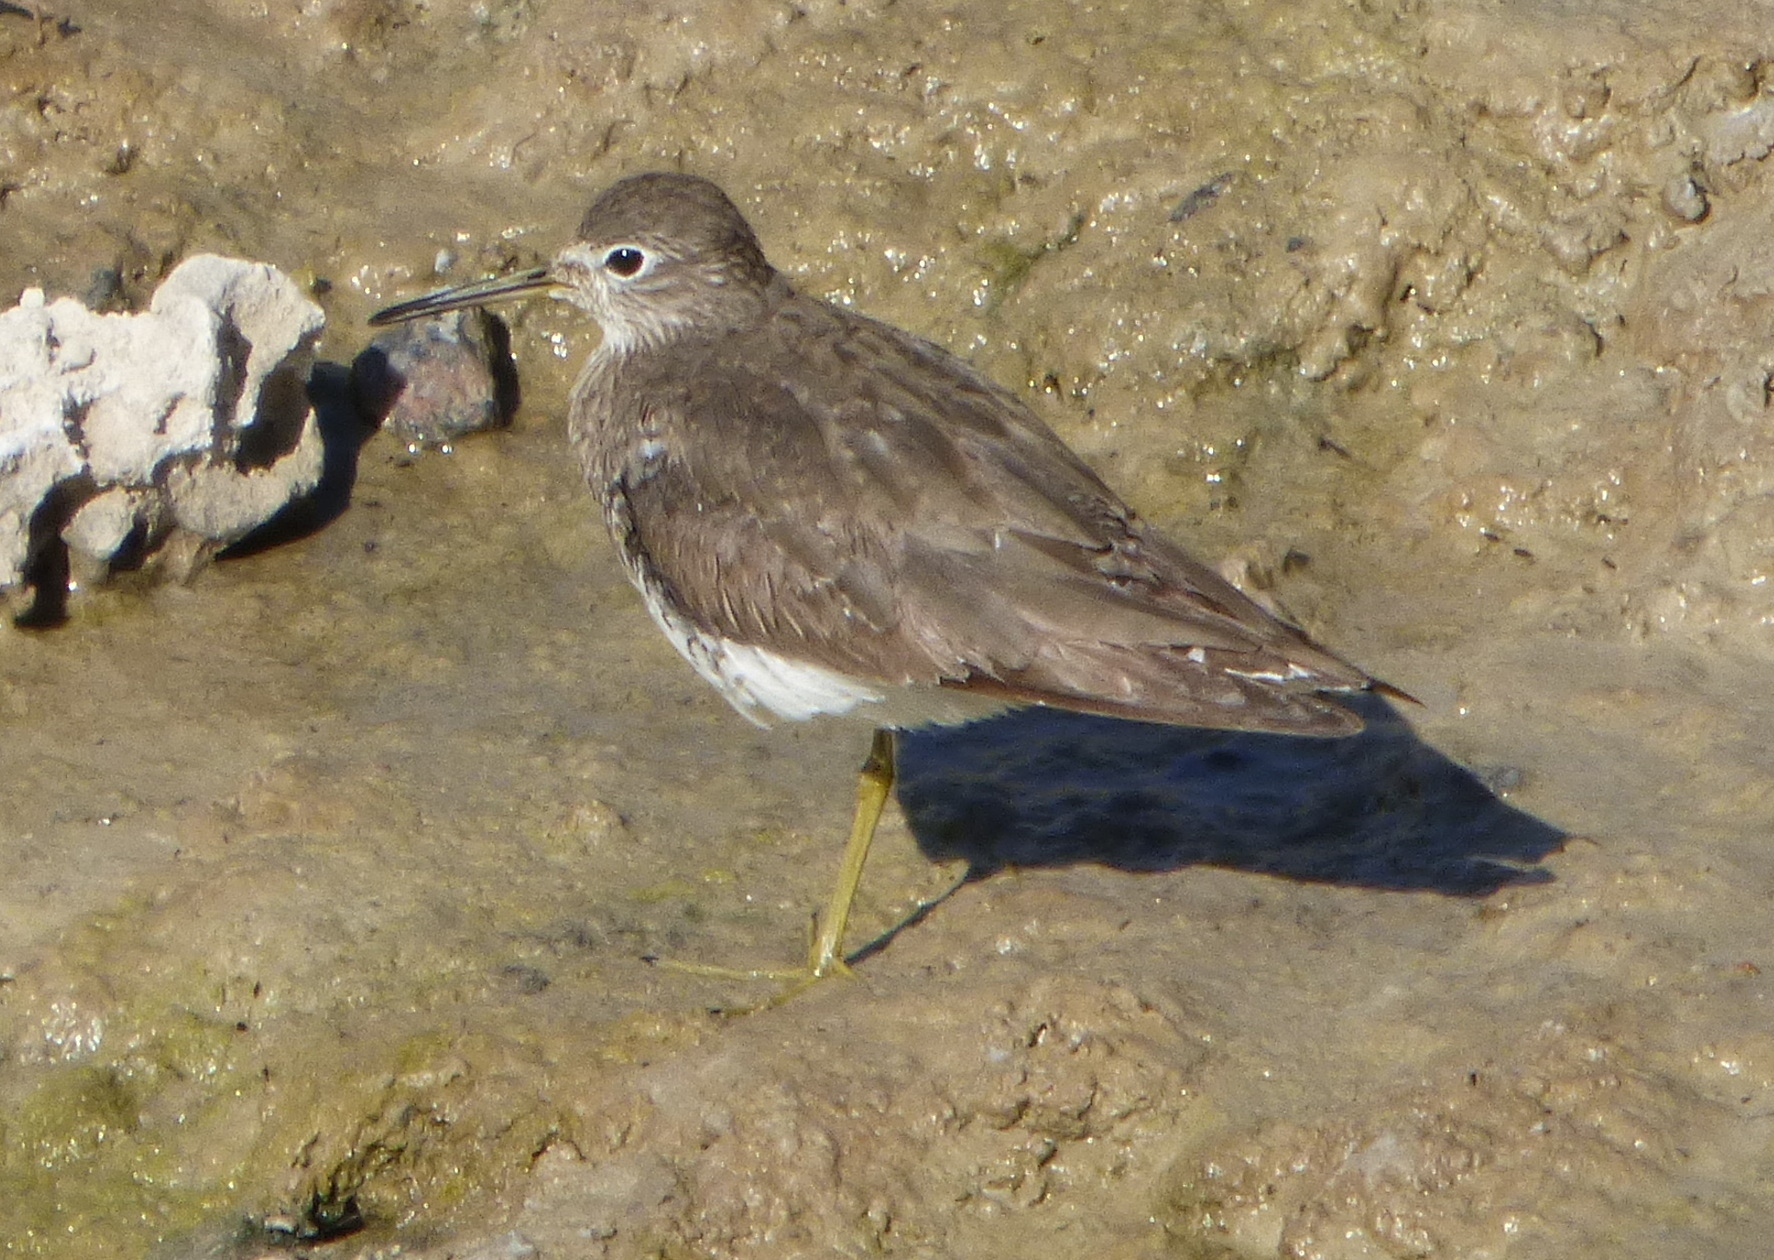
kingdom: Animalia
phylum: Chordata
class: Aves
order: Charadriiformes
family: Scolopacidae
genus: Tringa
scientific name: Tringa solitaria
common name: Solitary sandpiper
